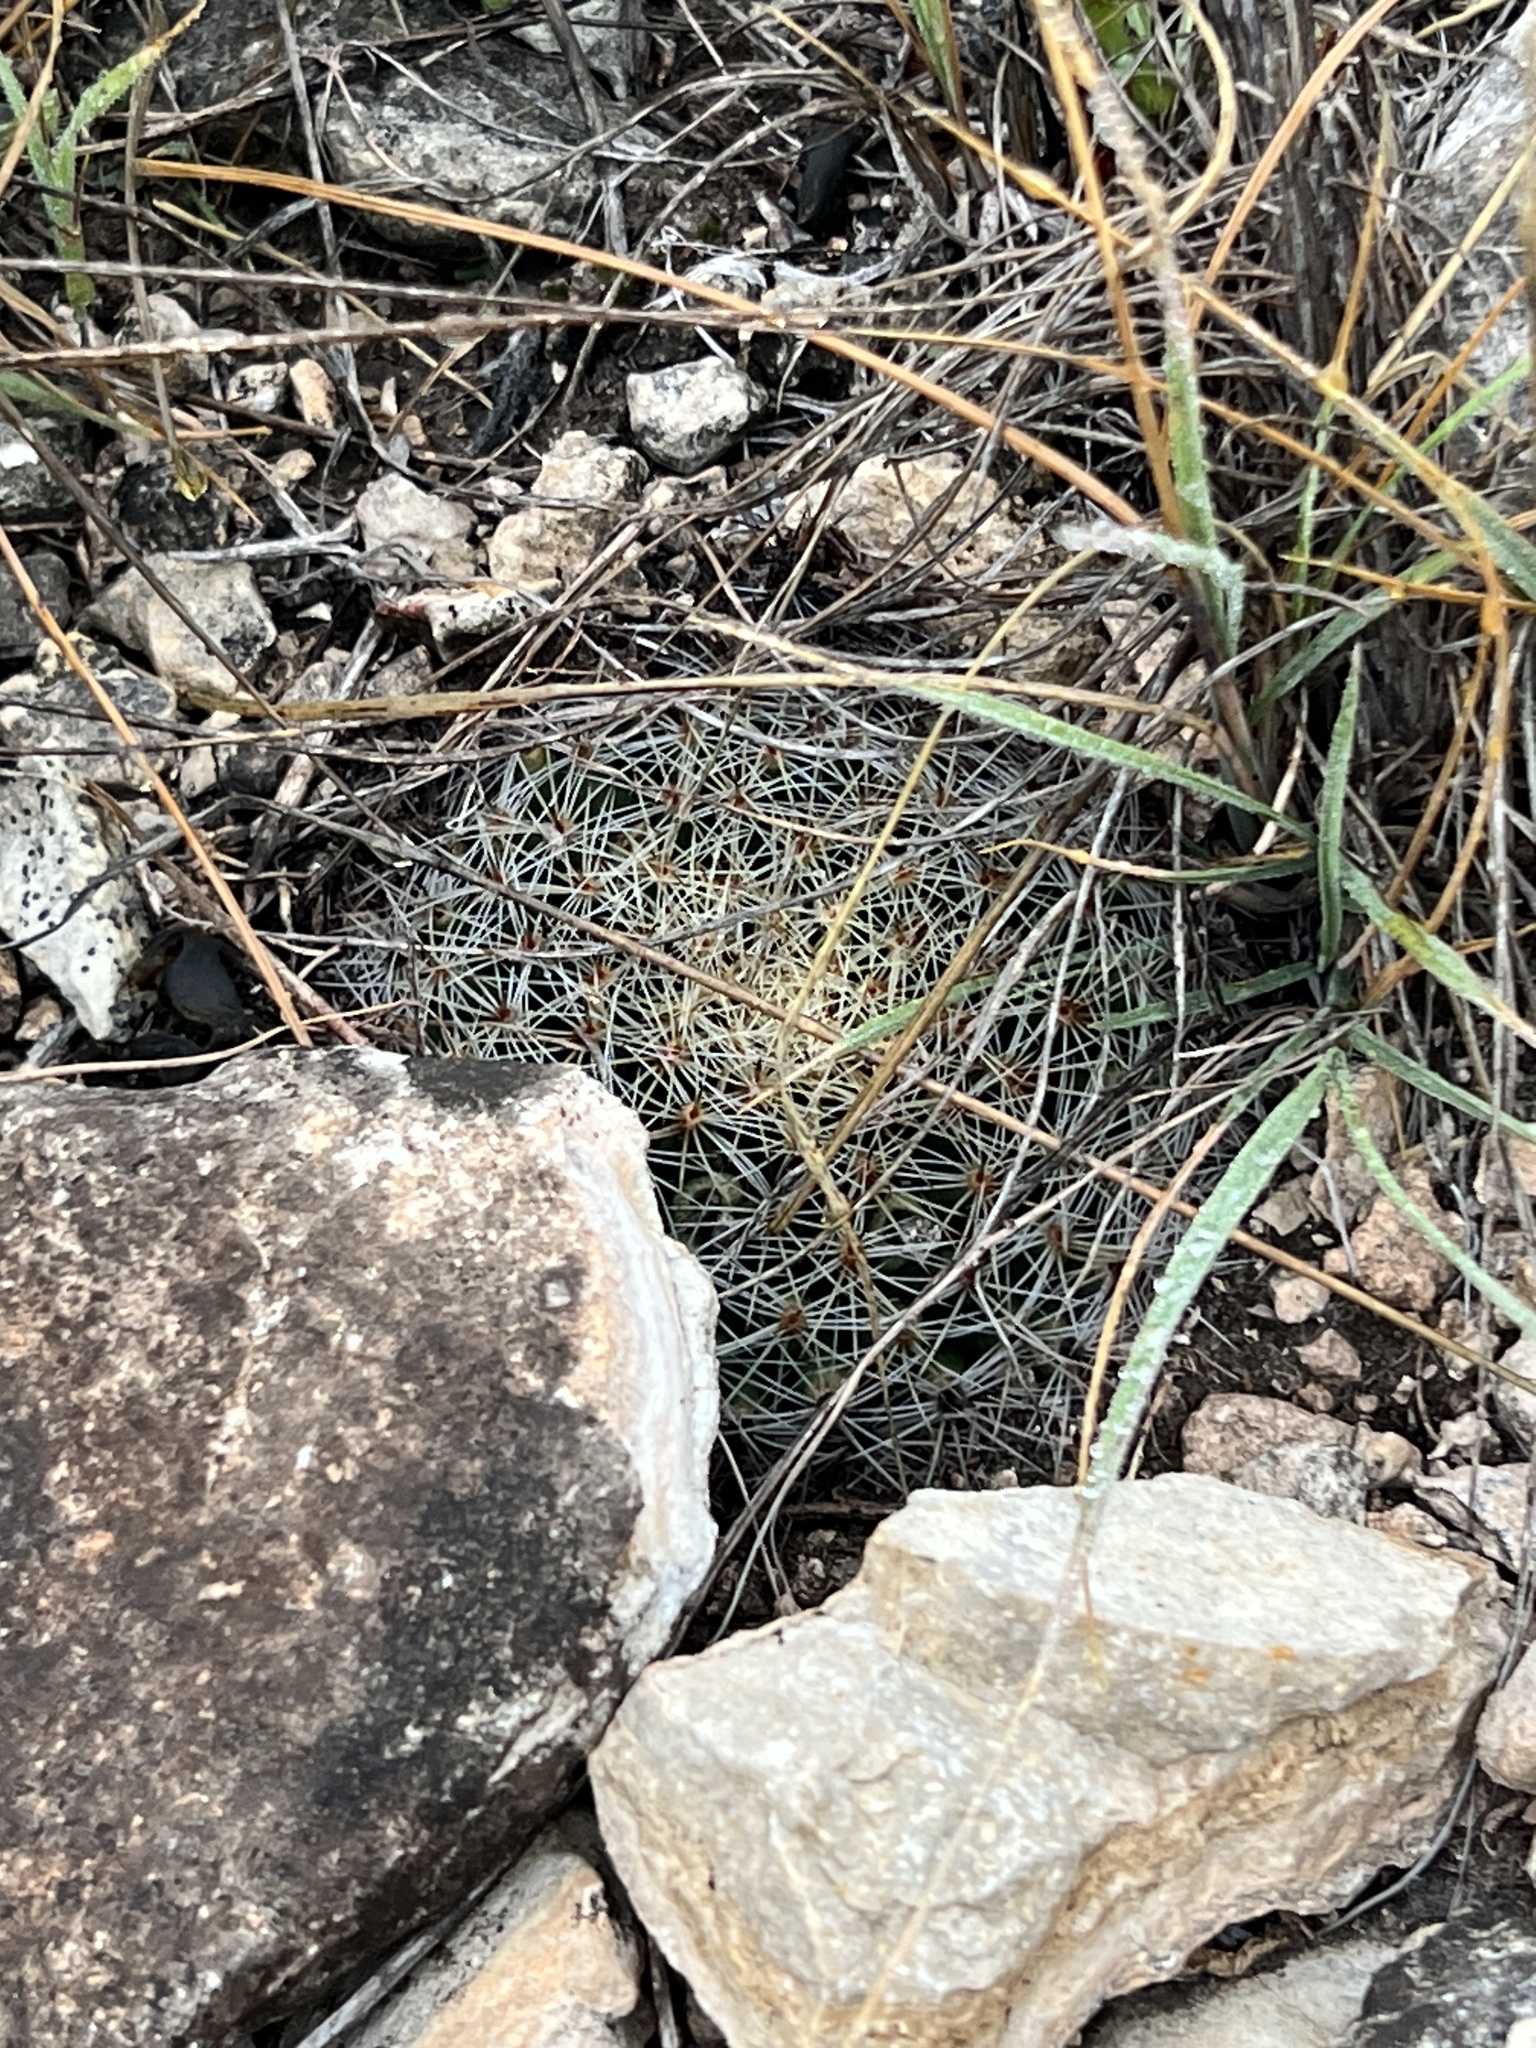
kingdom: Plantae
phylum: Tracheophyta
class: Magnoliopsida
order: Caryophyllales
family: Cactaceae
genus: Mammillaria
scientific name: Mammillaria heyderi
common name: Little nipple cactus
